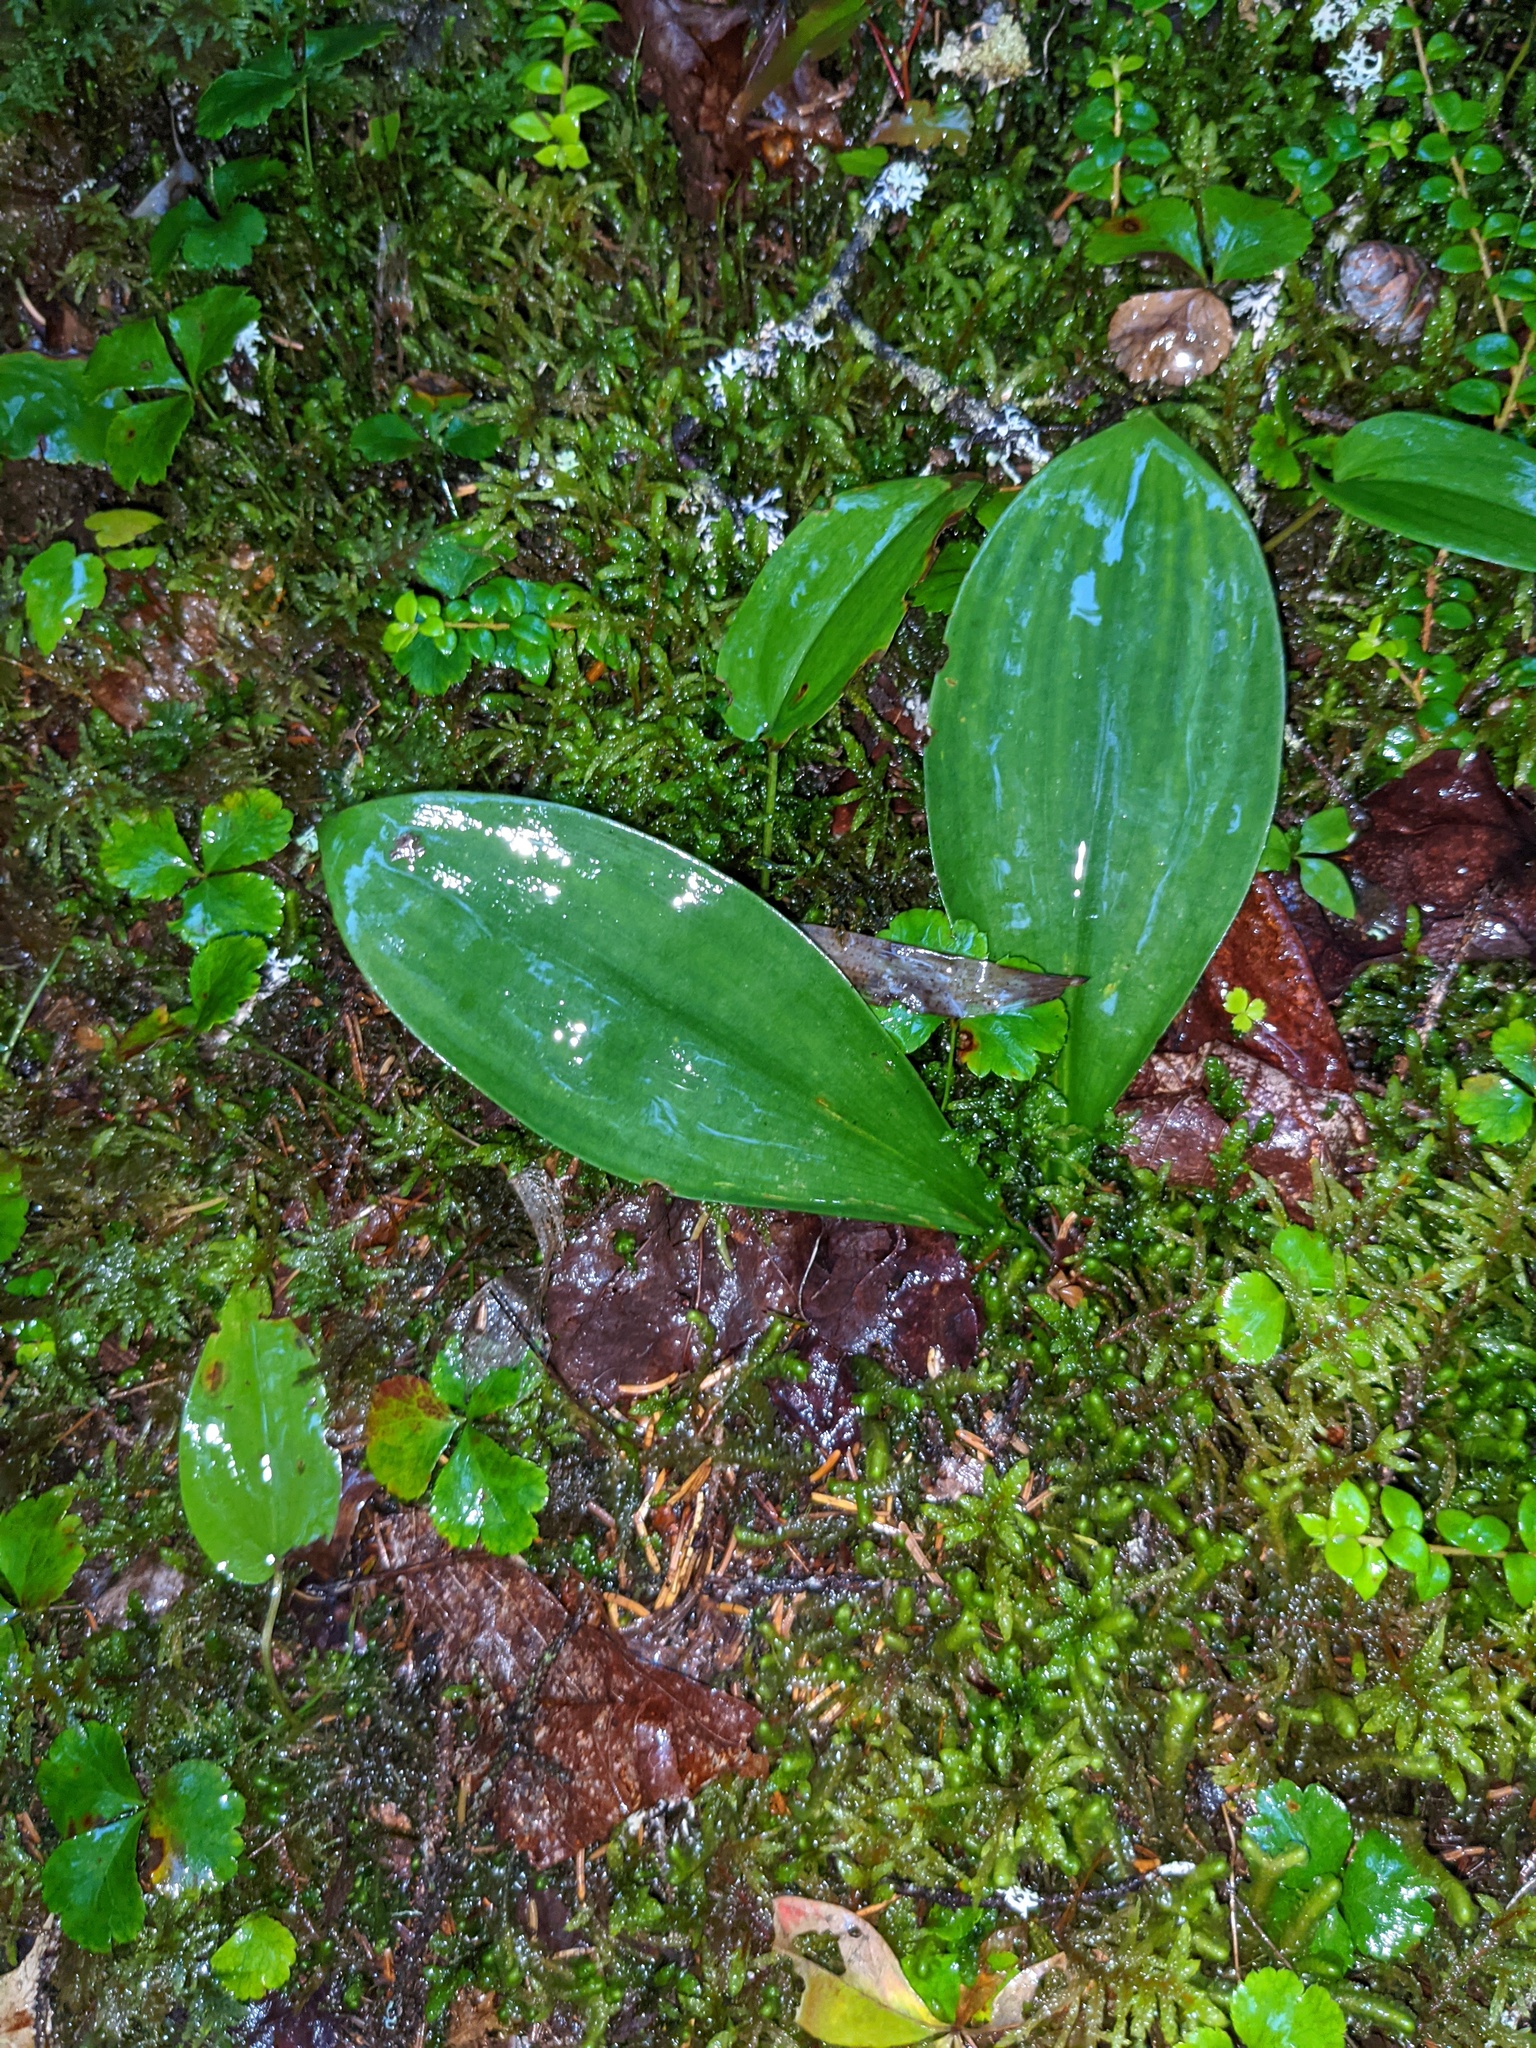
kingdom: Plantae
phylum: Tracheophyta
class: Liliopsida
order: Liliales
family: Liliaceae
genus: Clintonia
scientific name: Clintonia borealis
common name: Yellow clintonia
